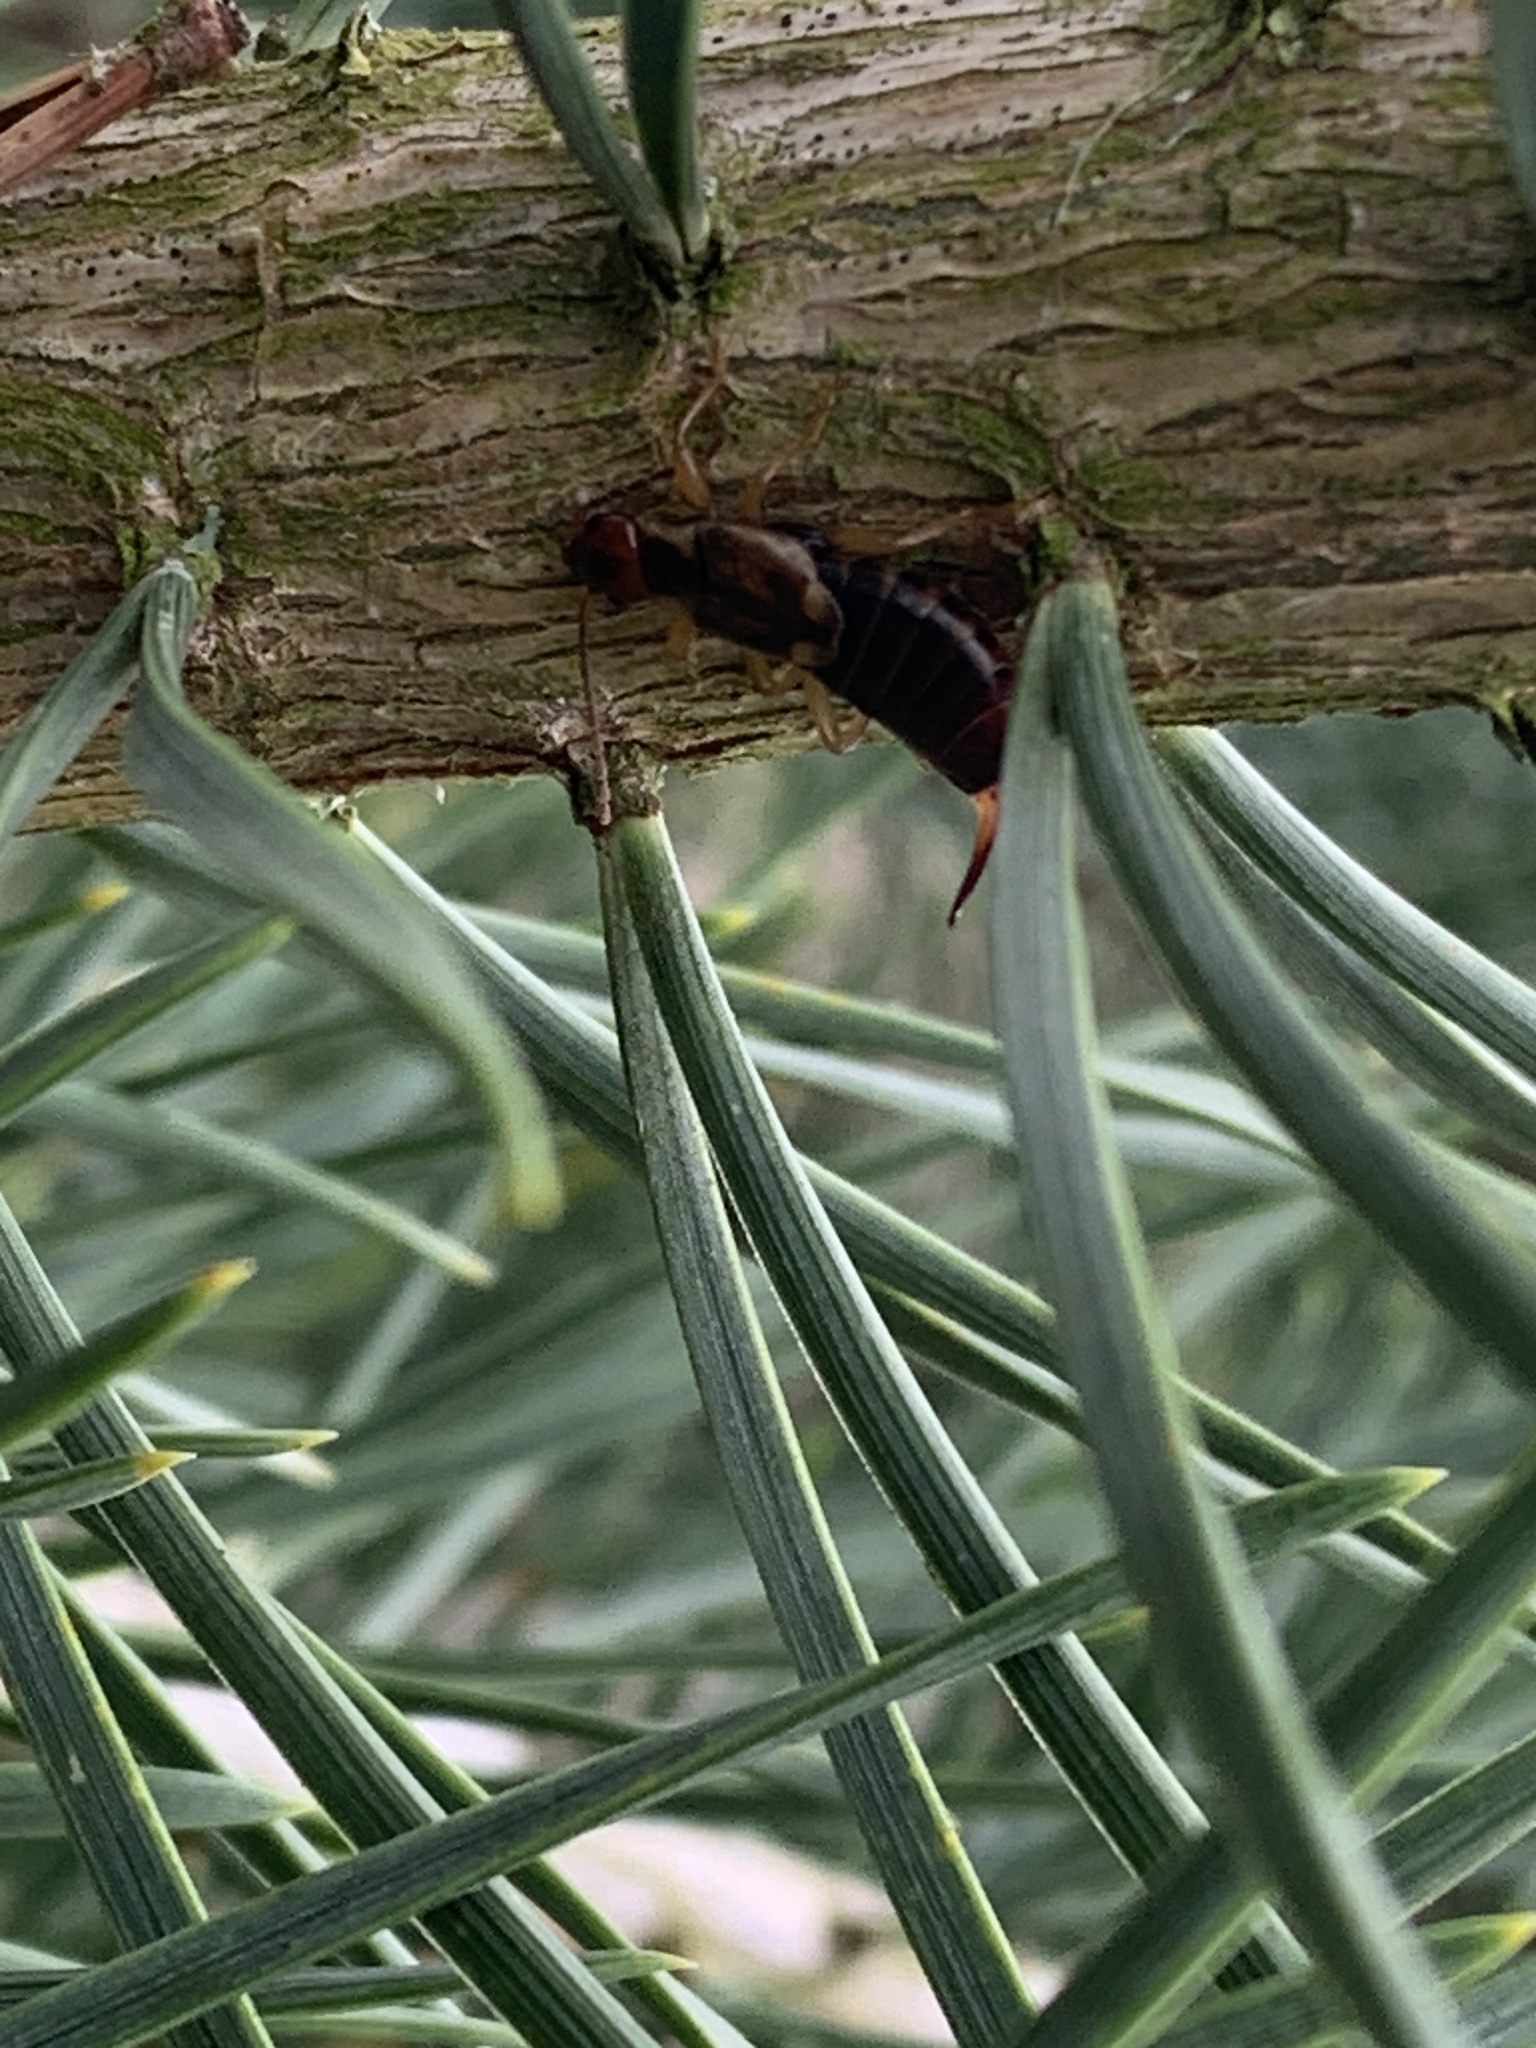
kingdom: Animalia
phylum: Arthropoda
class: Insecta
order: Dermaptera
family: Forficulidae
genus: Forficula
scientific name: Forficula
